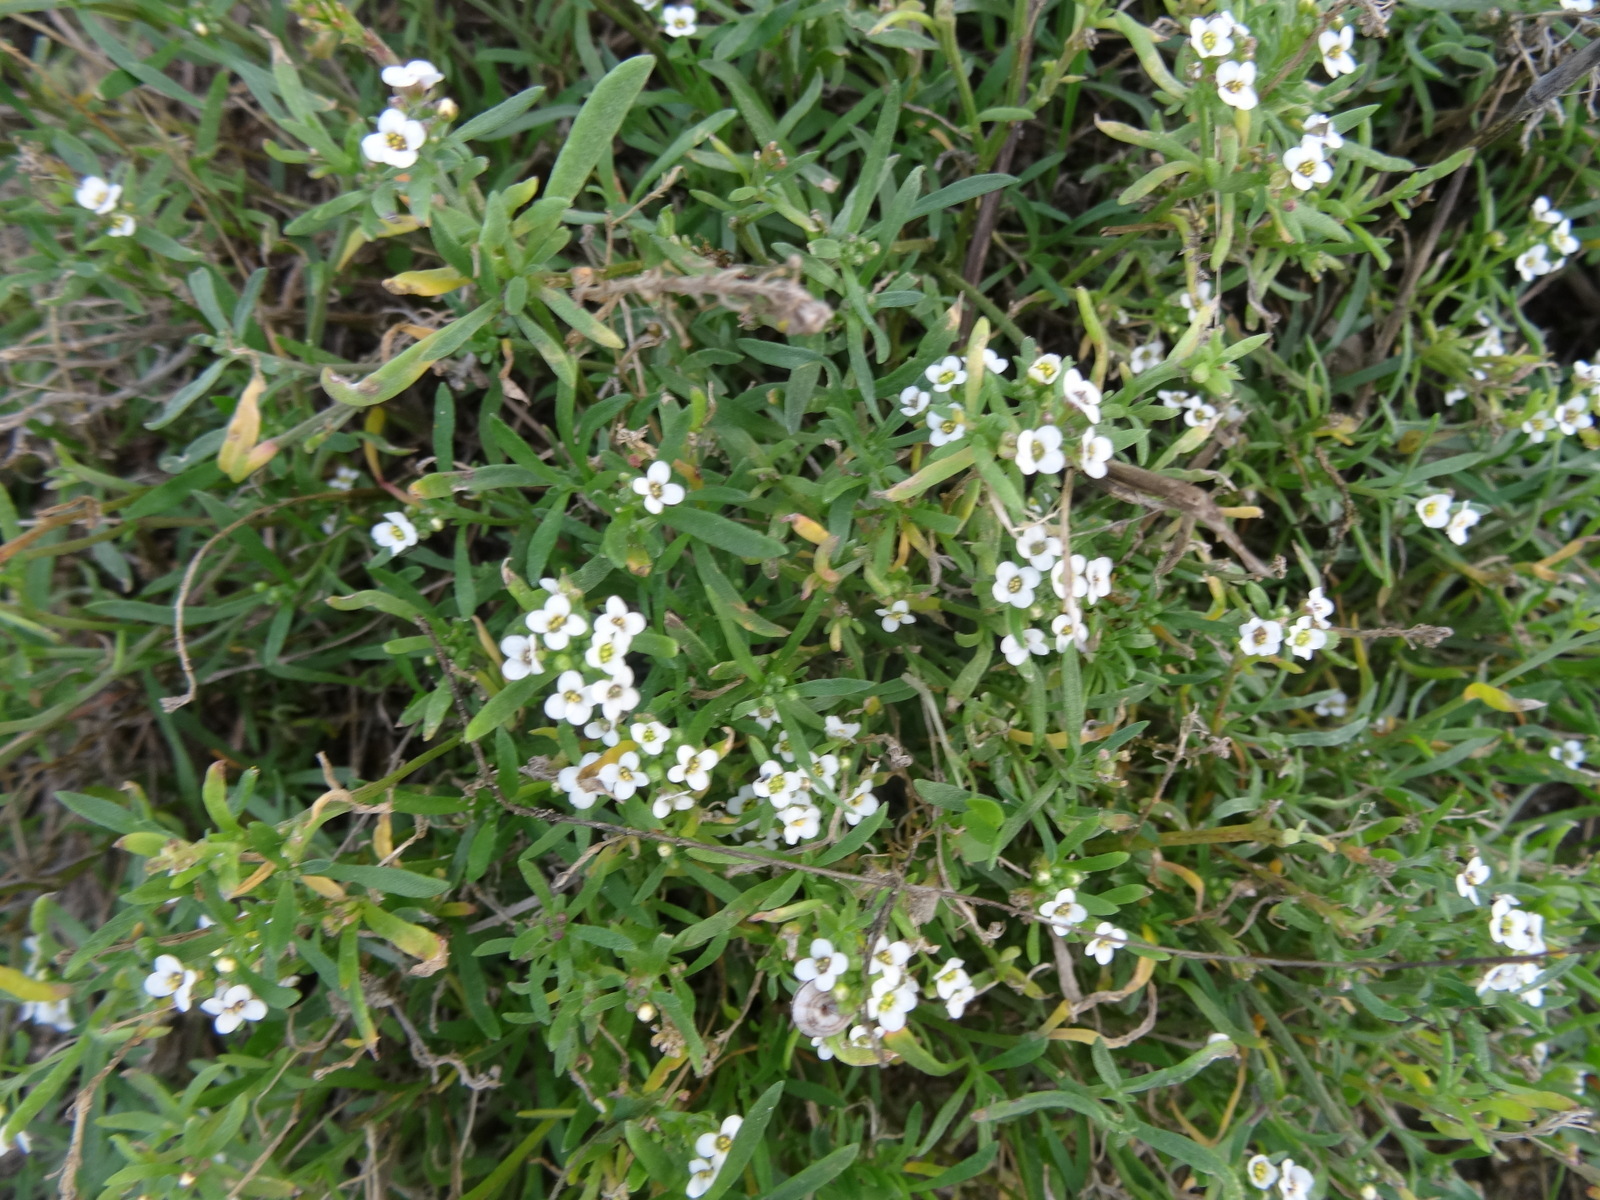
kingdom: Plantae
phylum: Tracheophyta
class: Magnoliopsida
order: Brassicales
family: Brassicaceae
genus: Lobularia
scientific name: Lobularia maritima
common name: Sweet alison
